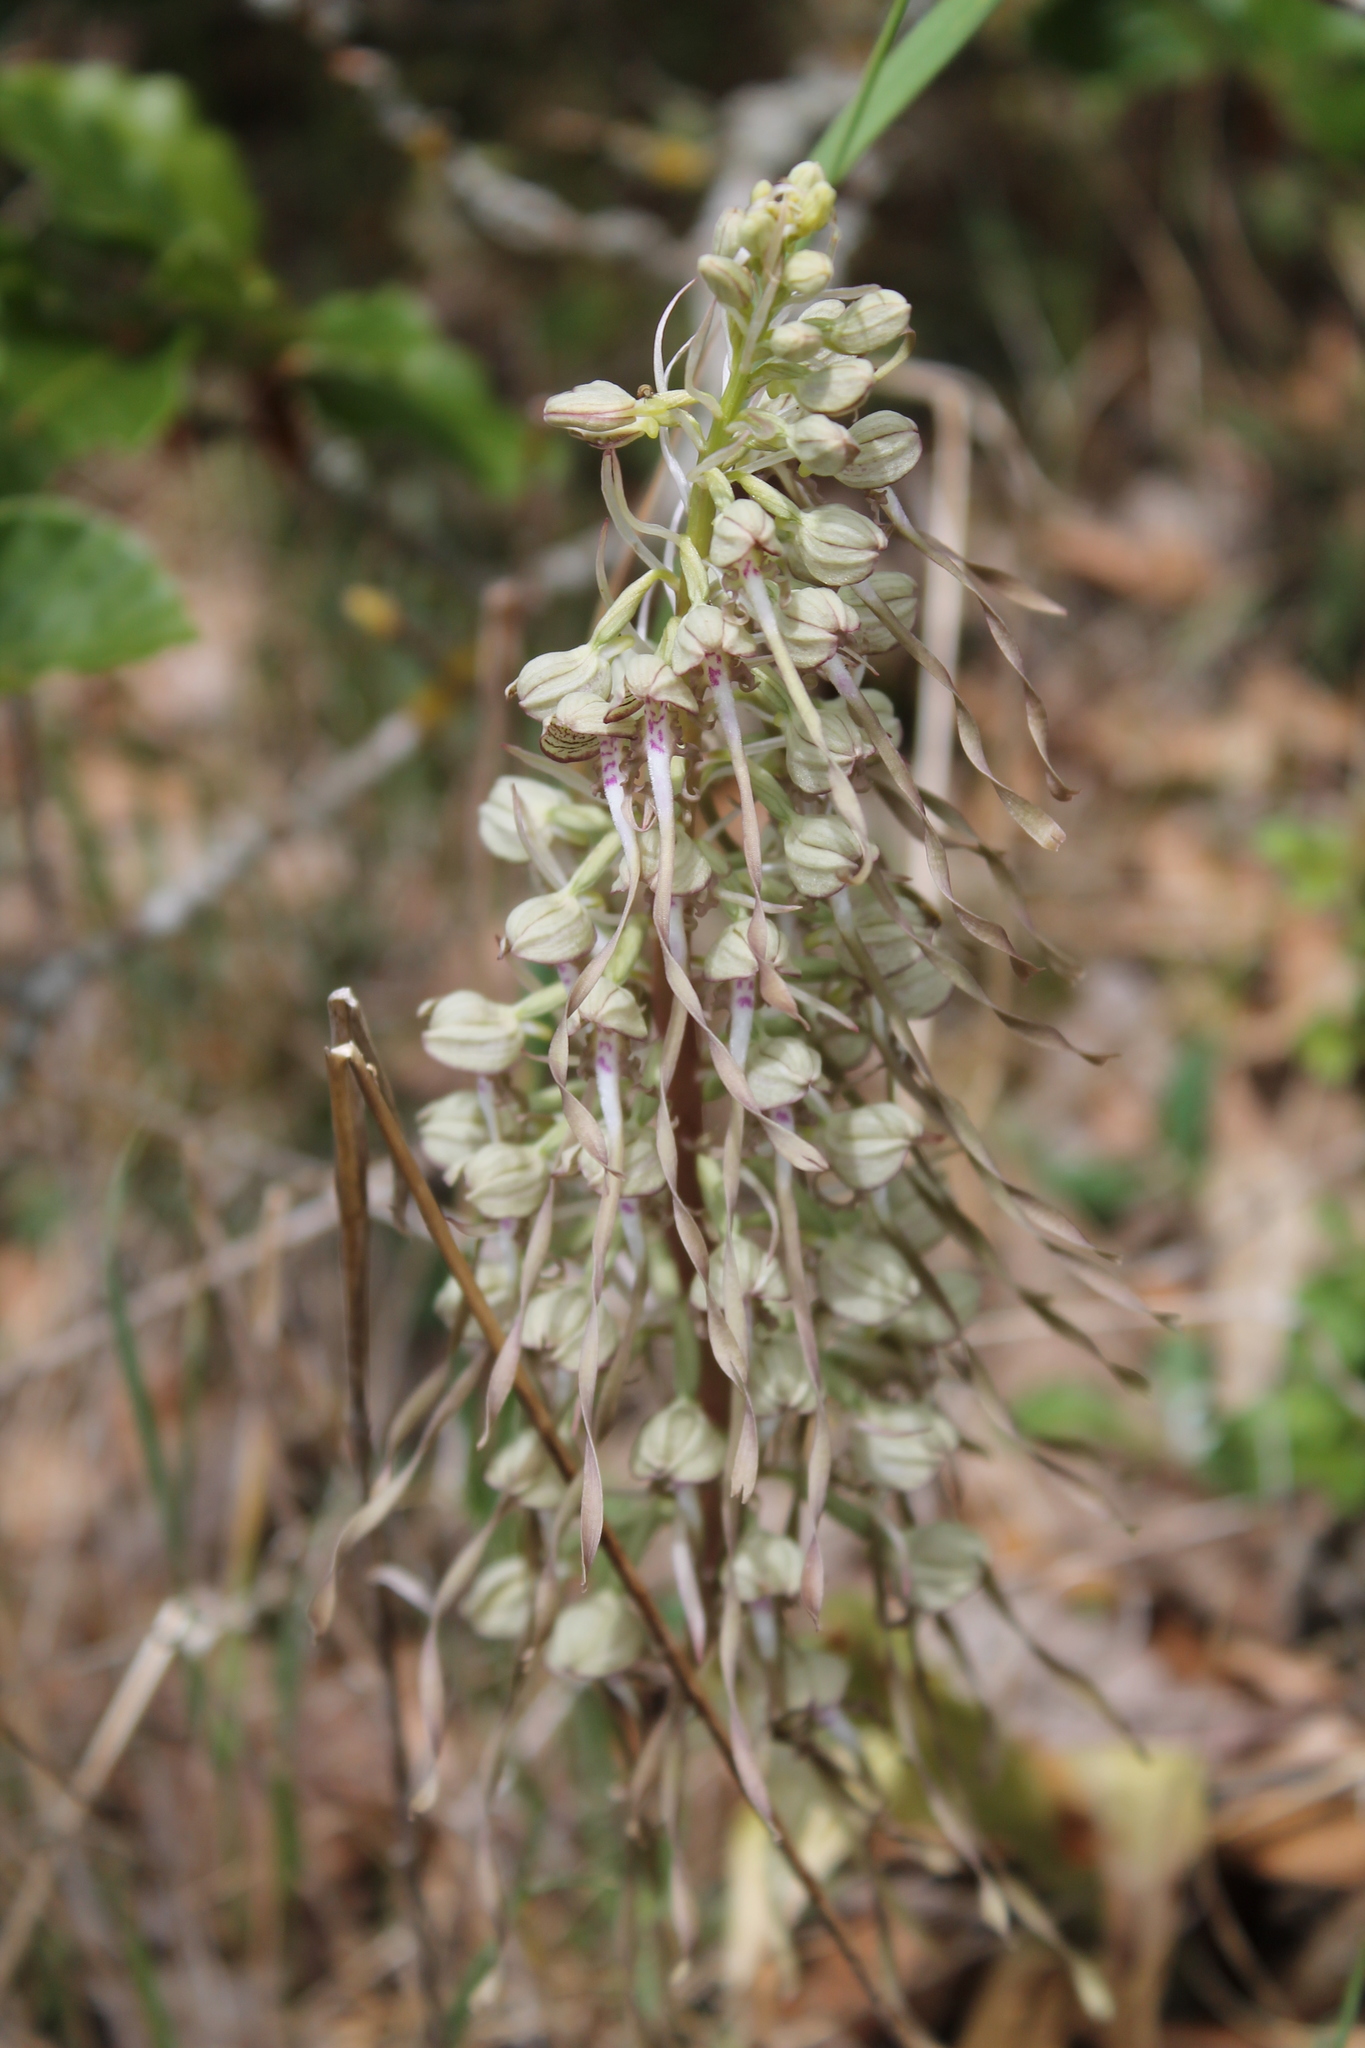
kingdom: Plantae
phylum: Tracheophyta
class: Liliopsida
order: Asparagales
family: Orchidaceae
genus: Himantoglossum
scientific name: Himantoglossum hircinum
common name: Lizard orchid
